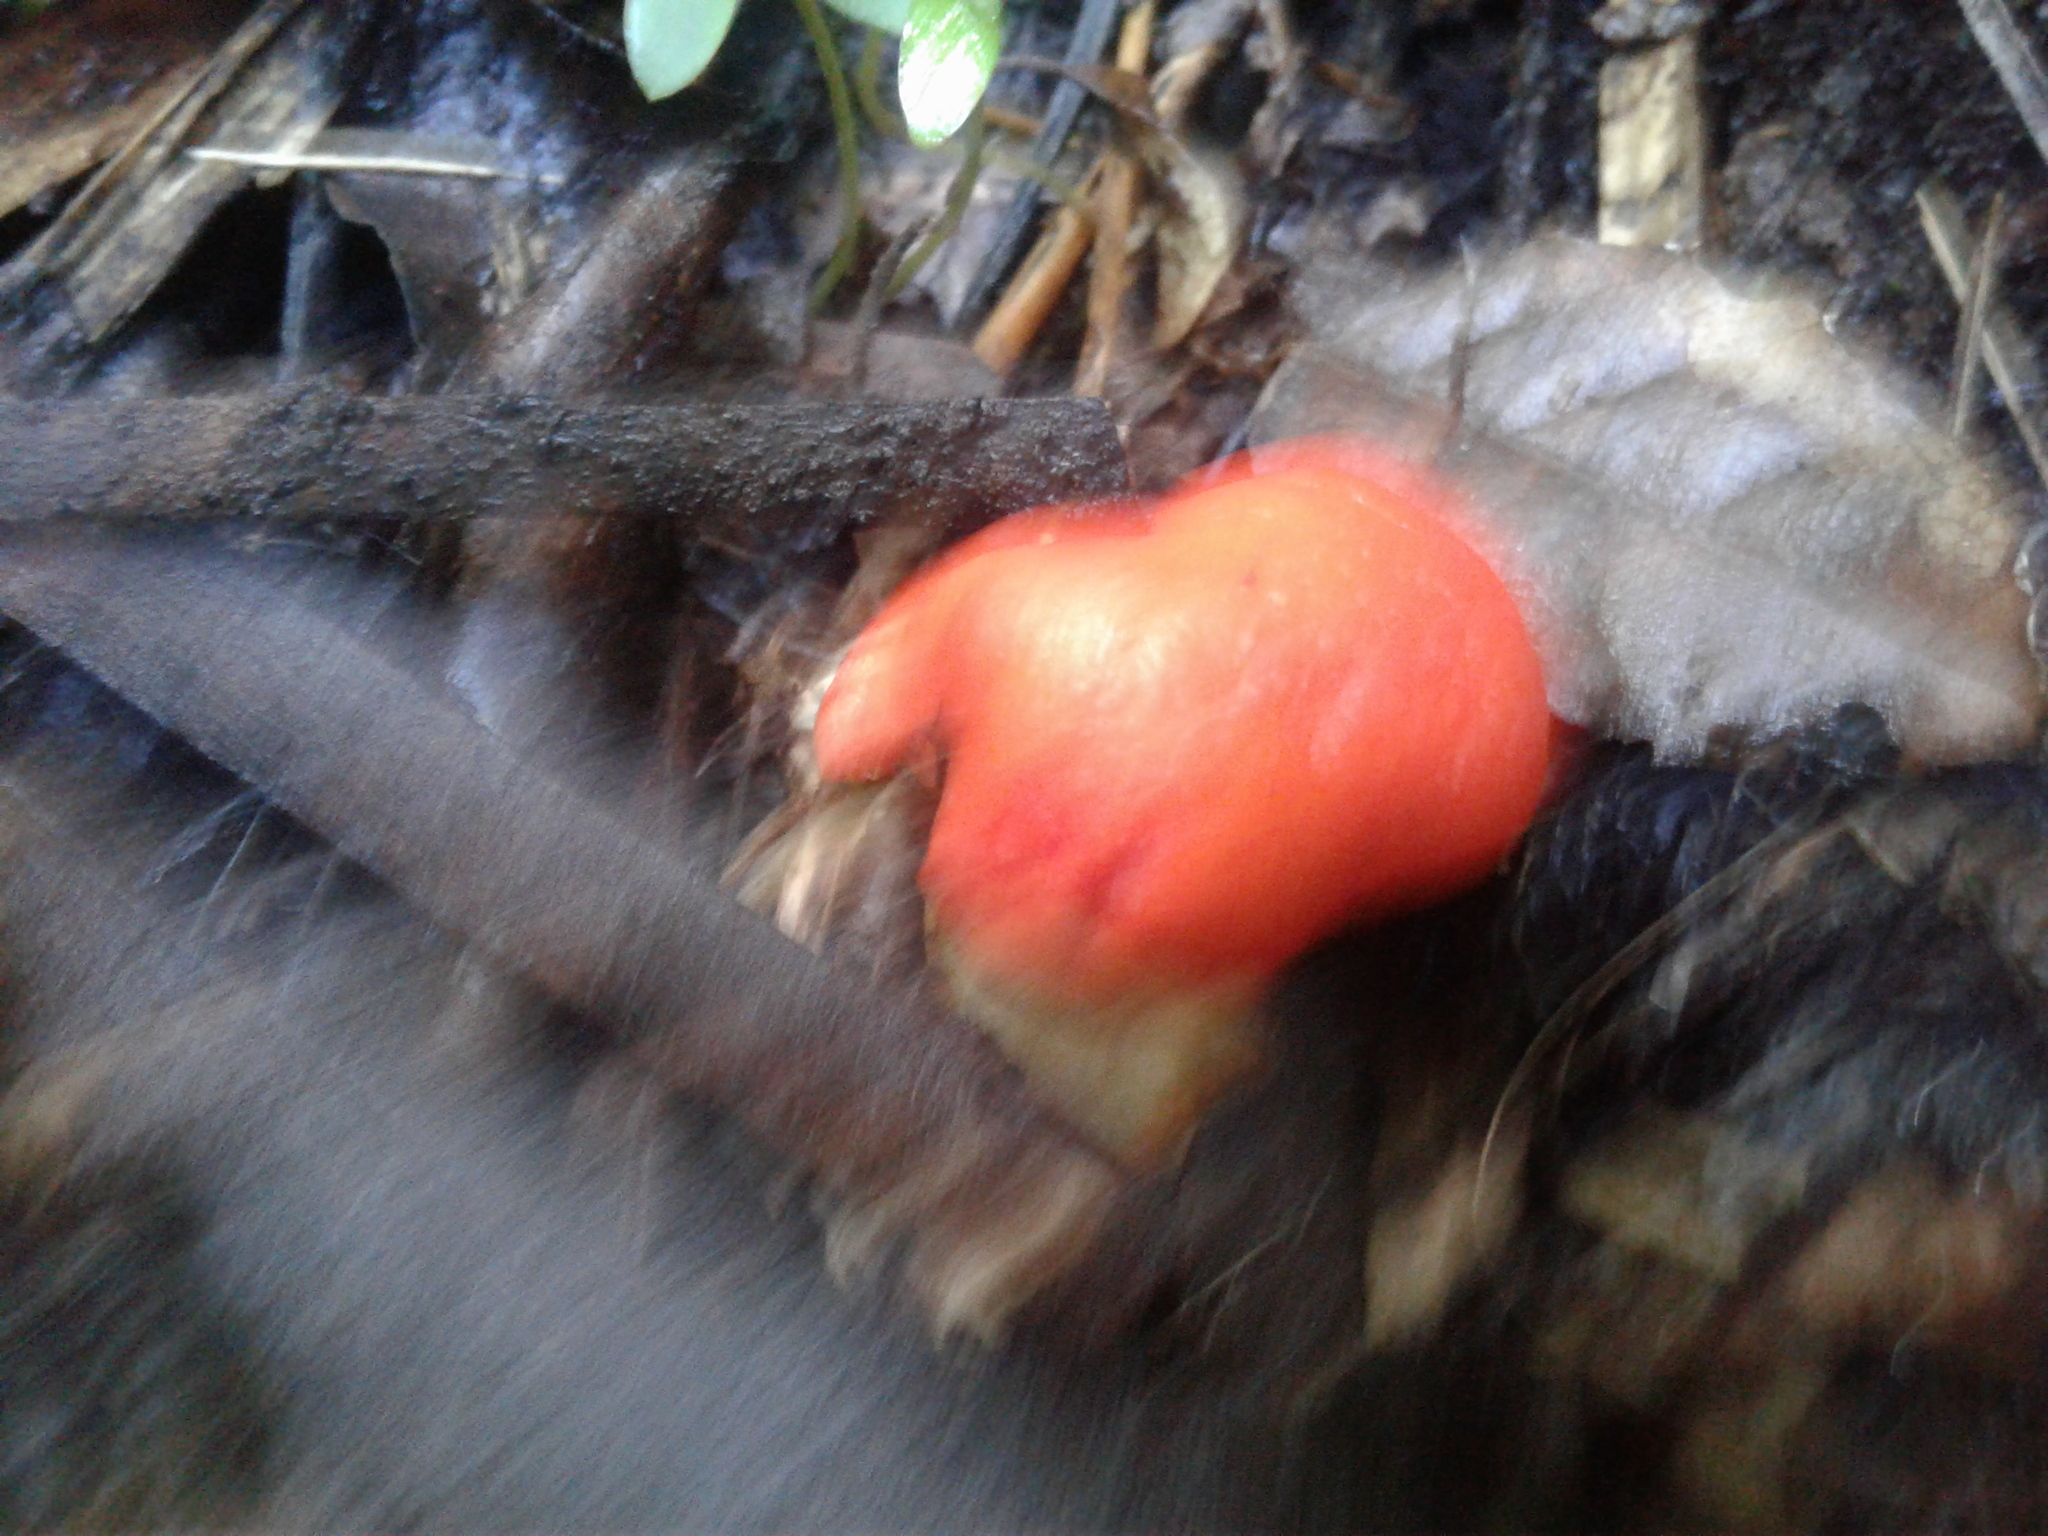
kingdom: Fungi
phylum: Basidiomycota
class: Agaricomycetes
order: Agaricales
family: Strophariaceae
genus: Leratiomyces
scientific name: Leratiomyces erythrocephalus
